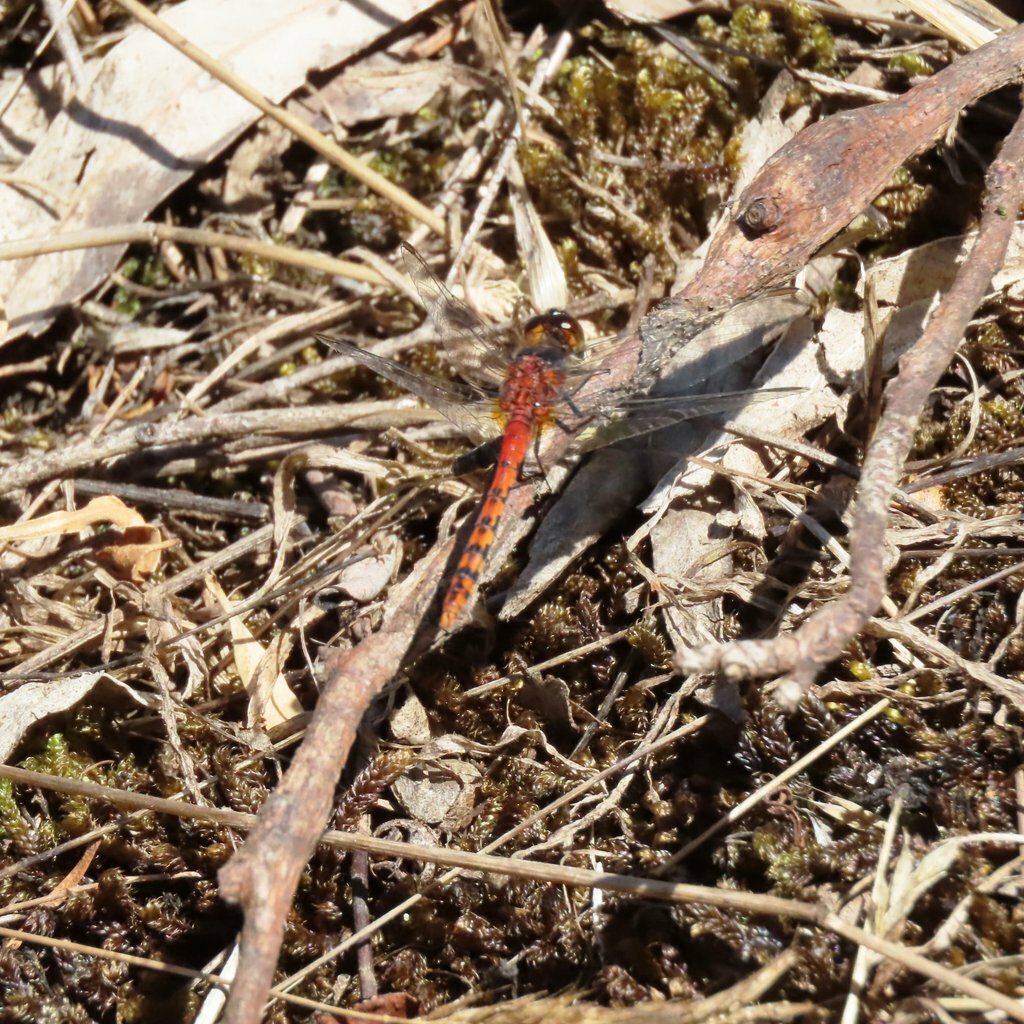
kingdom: Animalia
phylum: Arthropoda
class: Insecta
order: Odonata
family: Libellulidae
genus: Diplacodes
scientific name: Diplacodes melanopsis
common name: Black-faced percher
